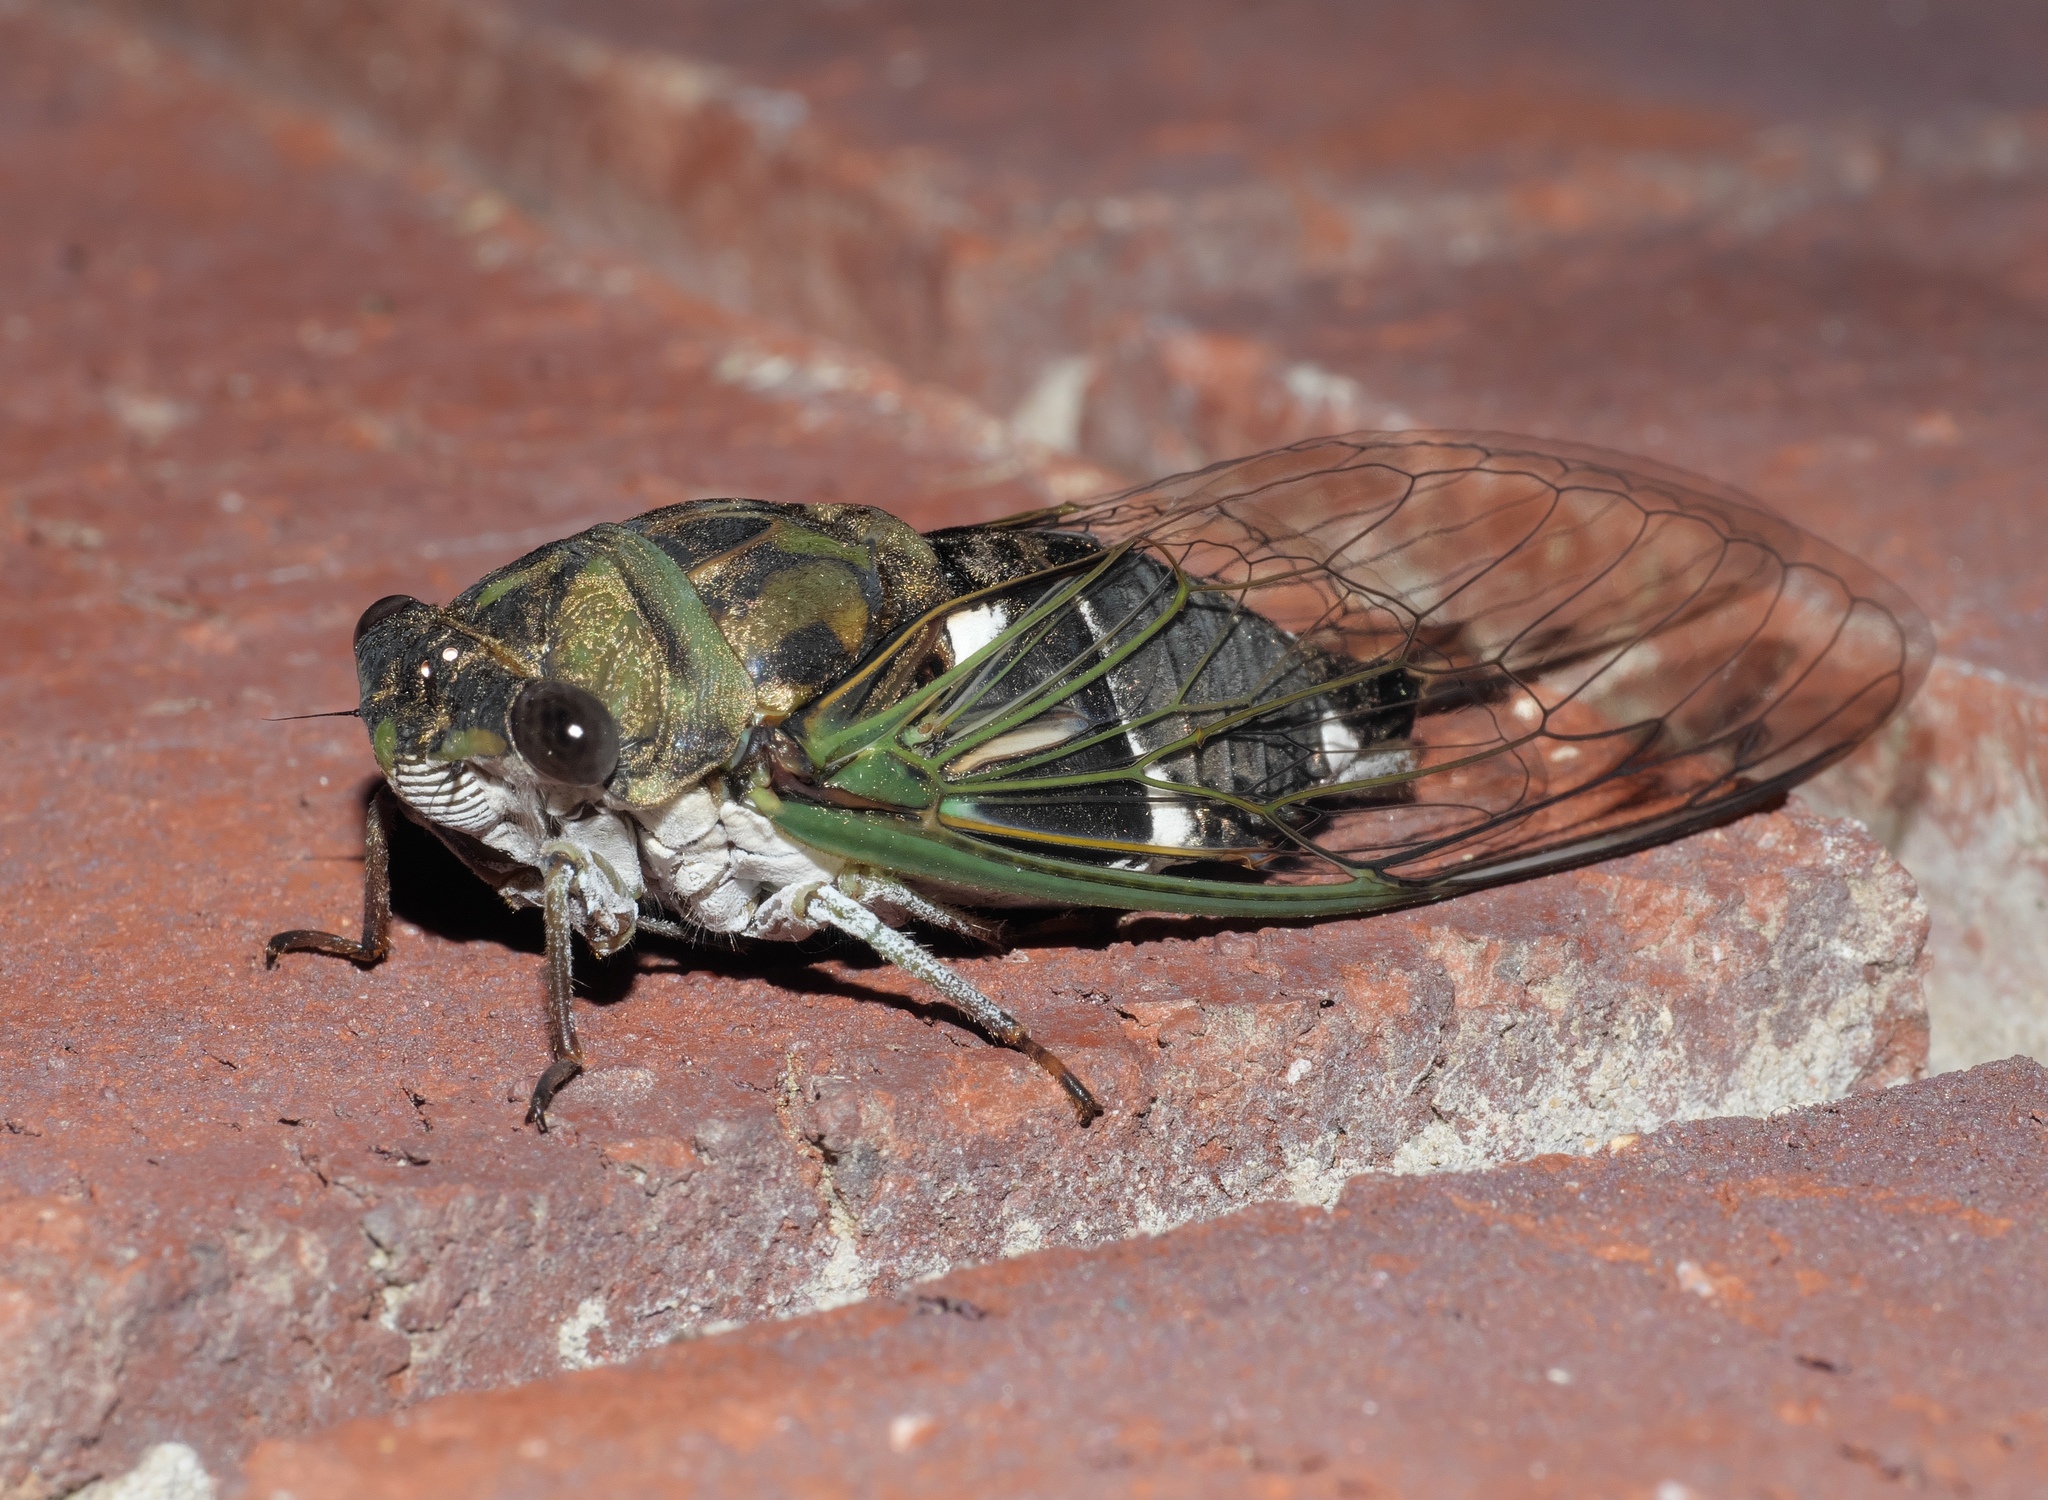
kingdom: Animalia
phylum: Arthropoda
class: Insecta
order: Hemiptera
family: Cicadidae
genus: Neotibicen
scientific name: Neotibicen pruinosus
